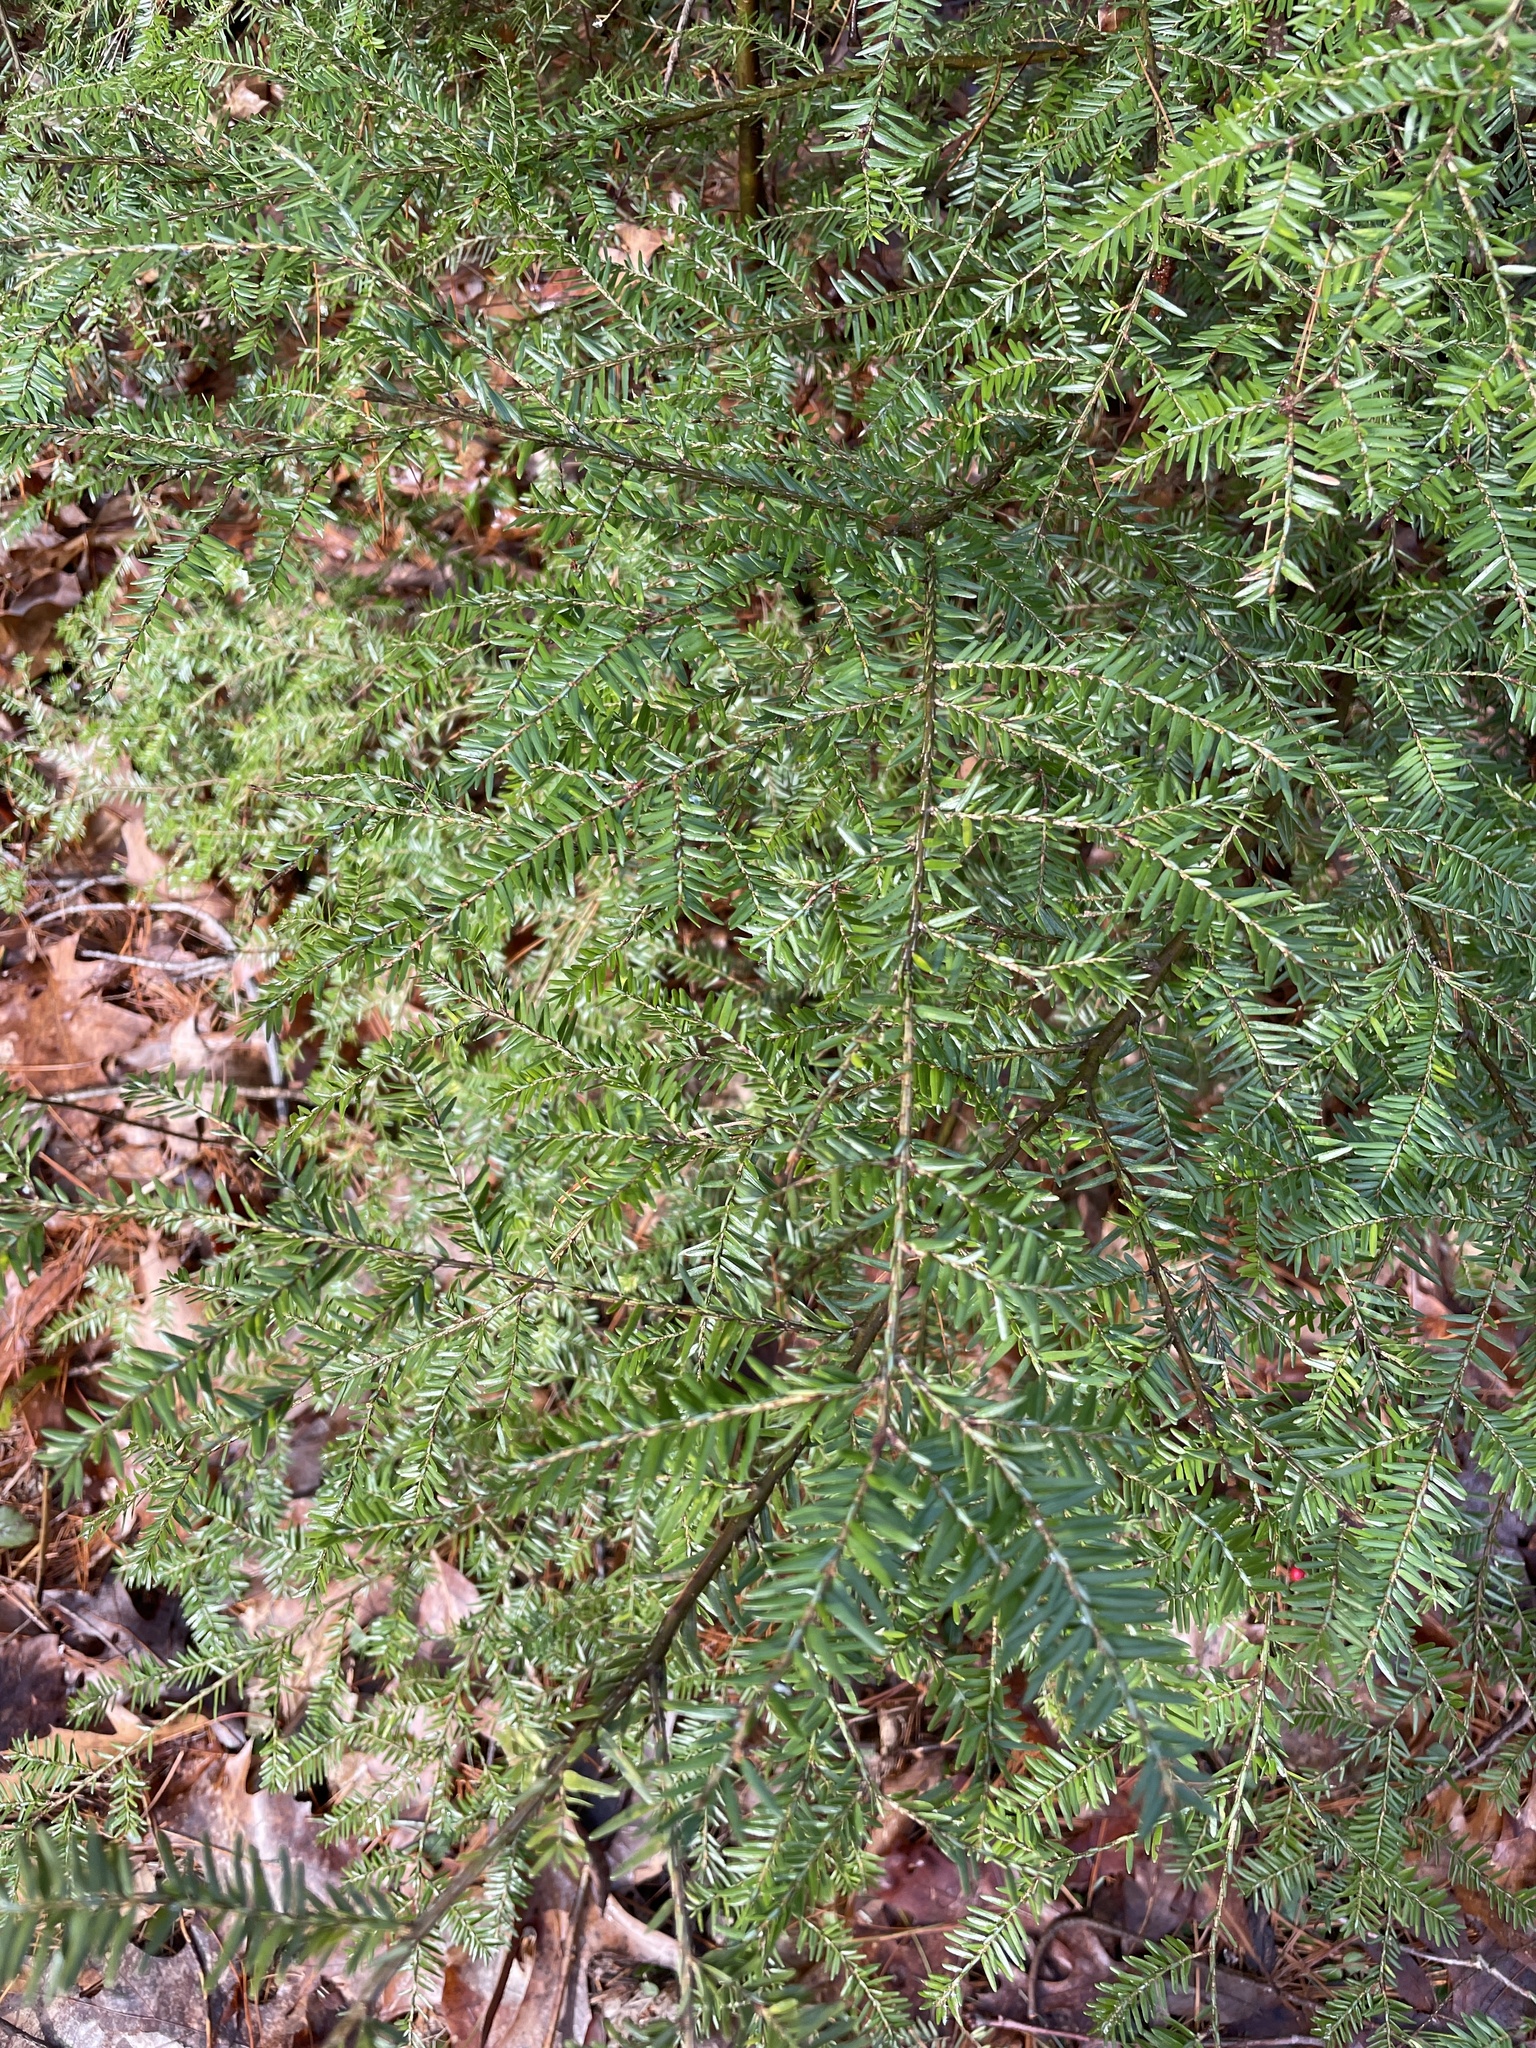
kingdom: Plantae
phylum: Tracheophyta
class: Pinopsida
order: Pinales
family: Pinaceae
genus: Tsuga
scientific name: Tsuga canadensis
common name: Eastern hemlock
